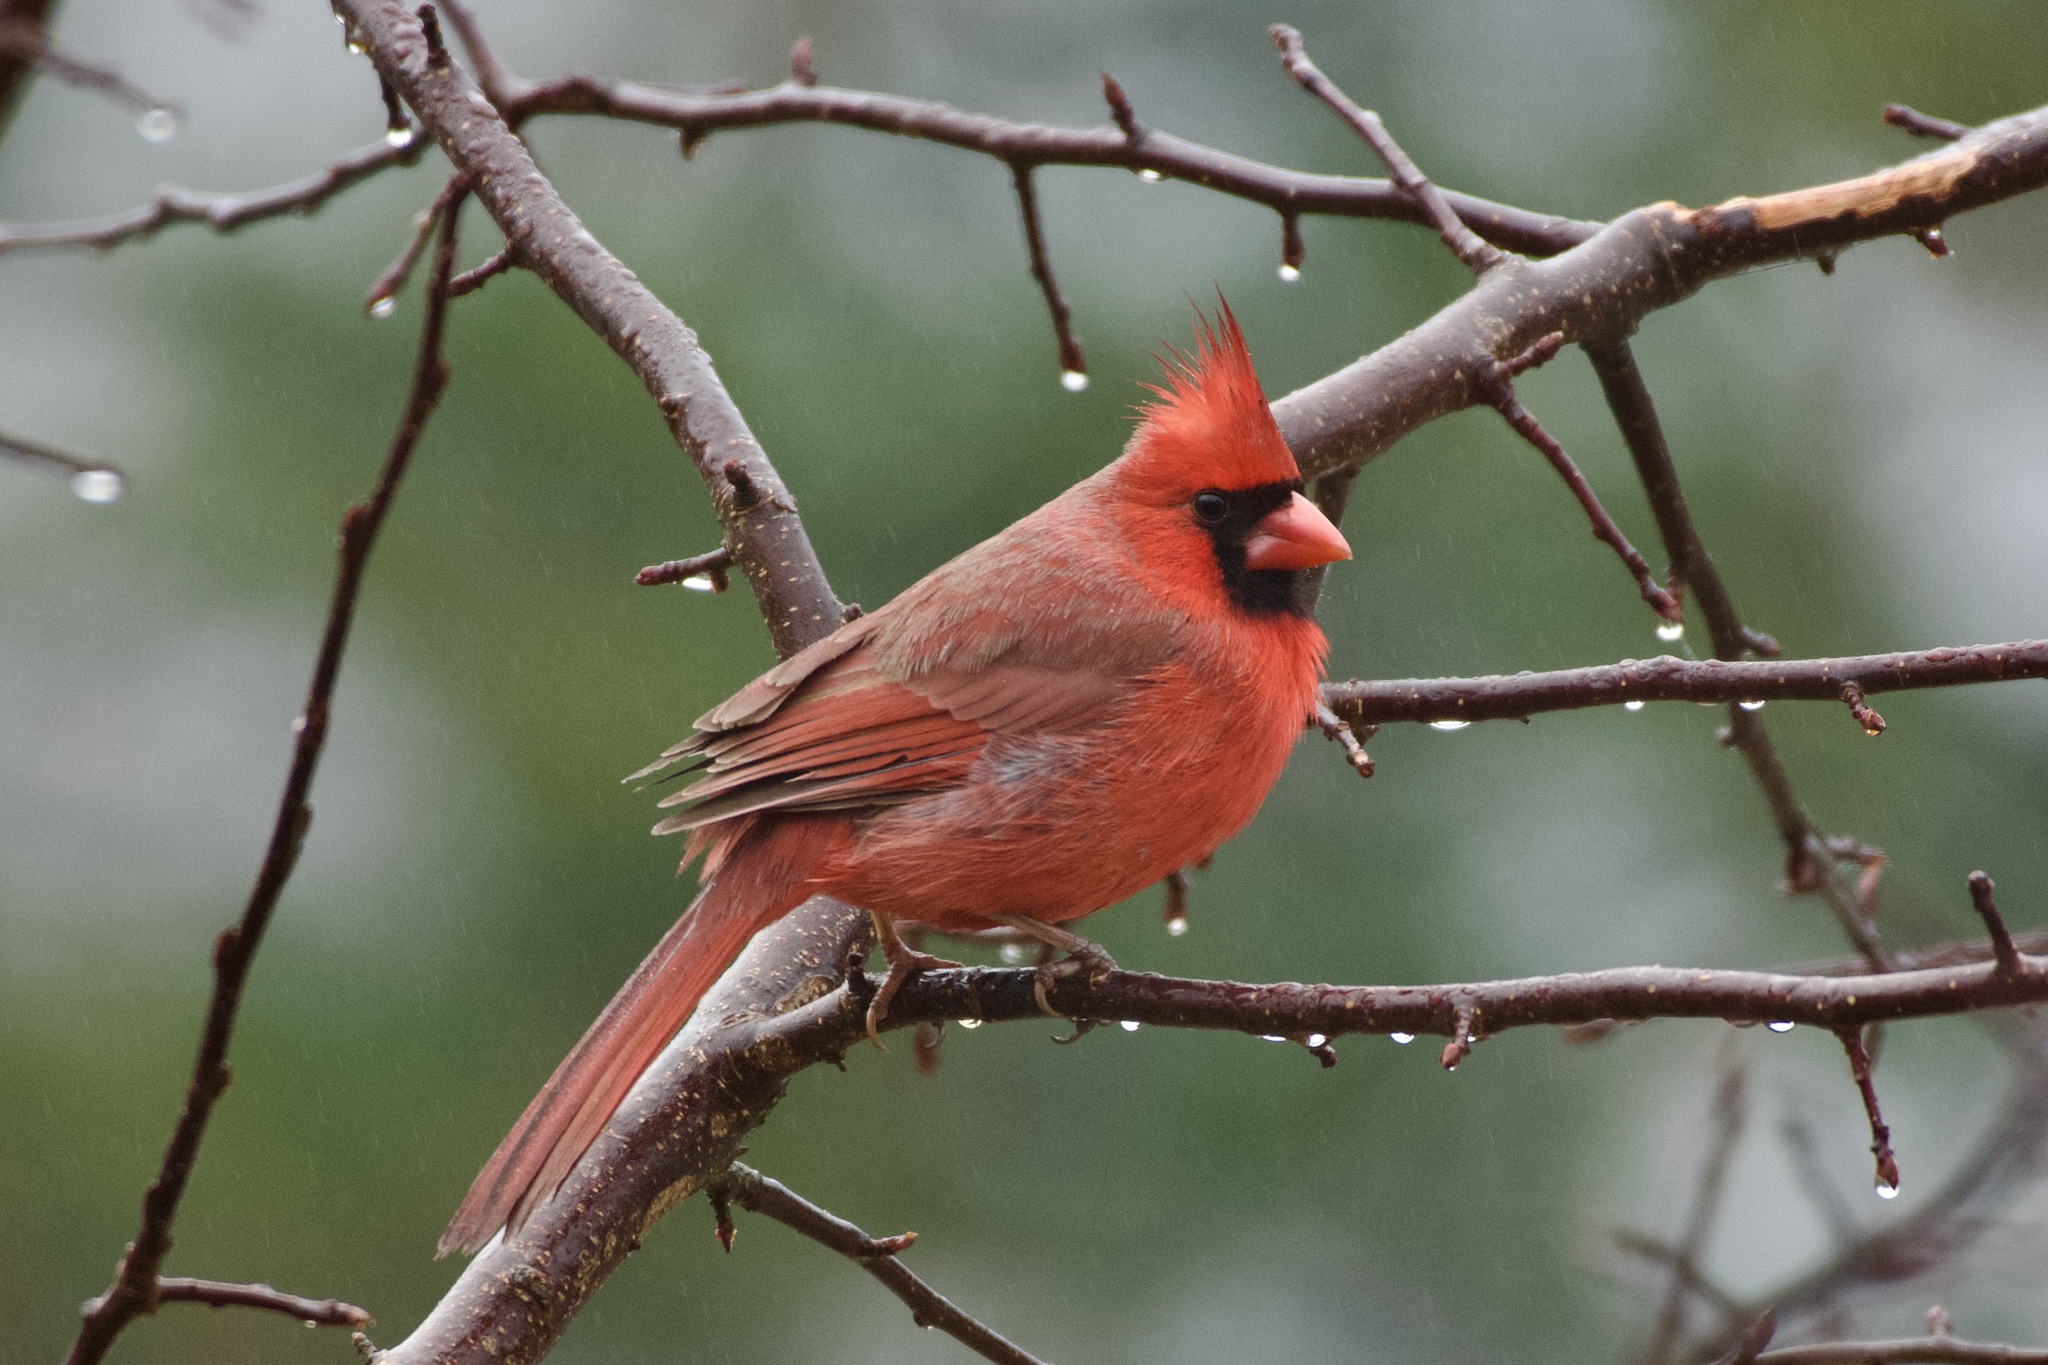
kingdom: Animalia
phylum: Chordata
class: Aves
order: Passeriformes
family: Cardinalidae
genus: Cardinalis
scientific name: Cardinalis cardinalis
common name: Northern cardinal
